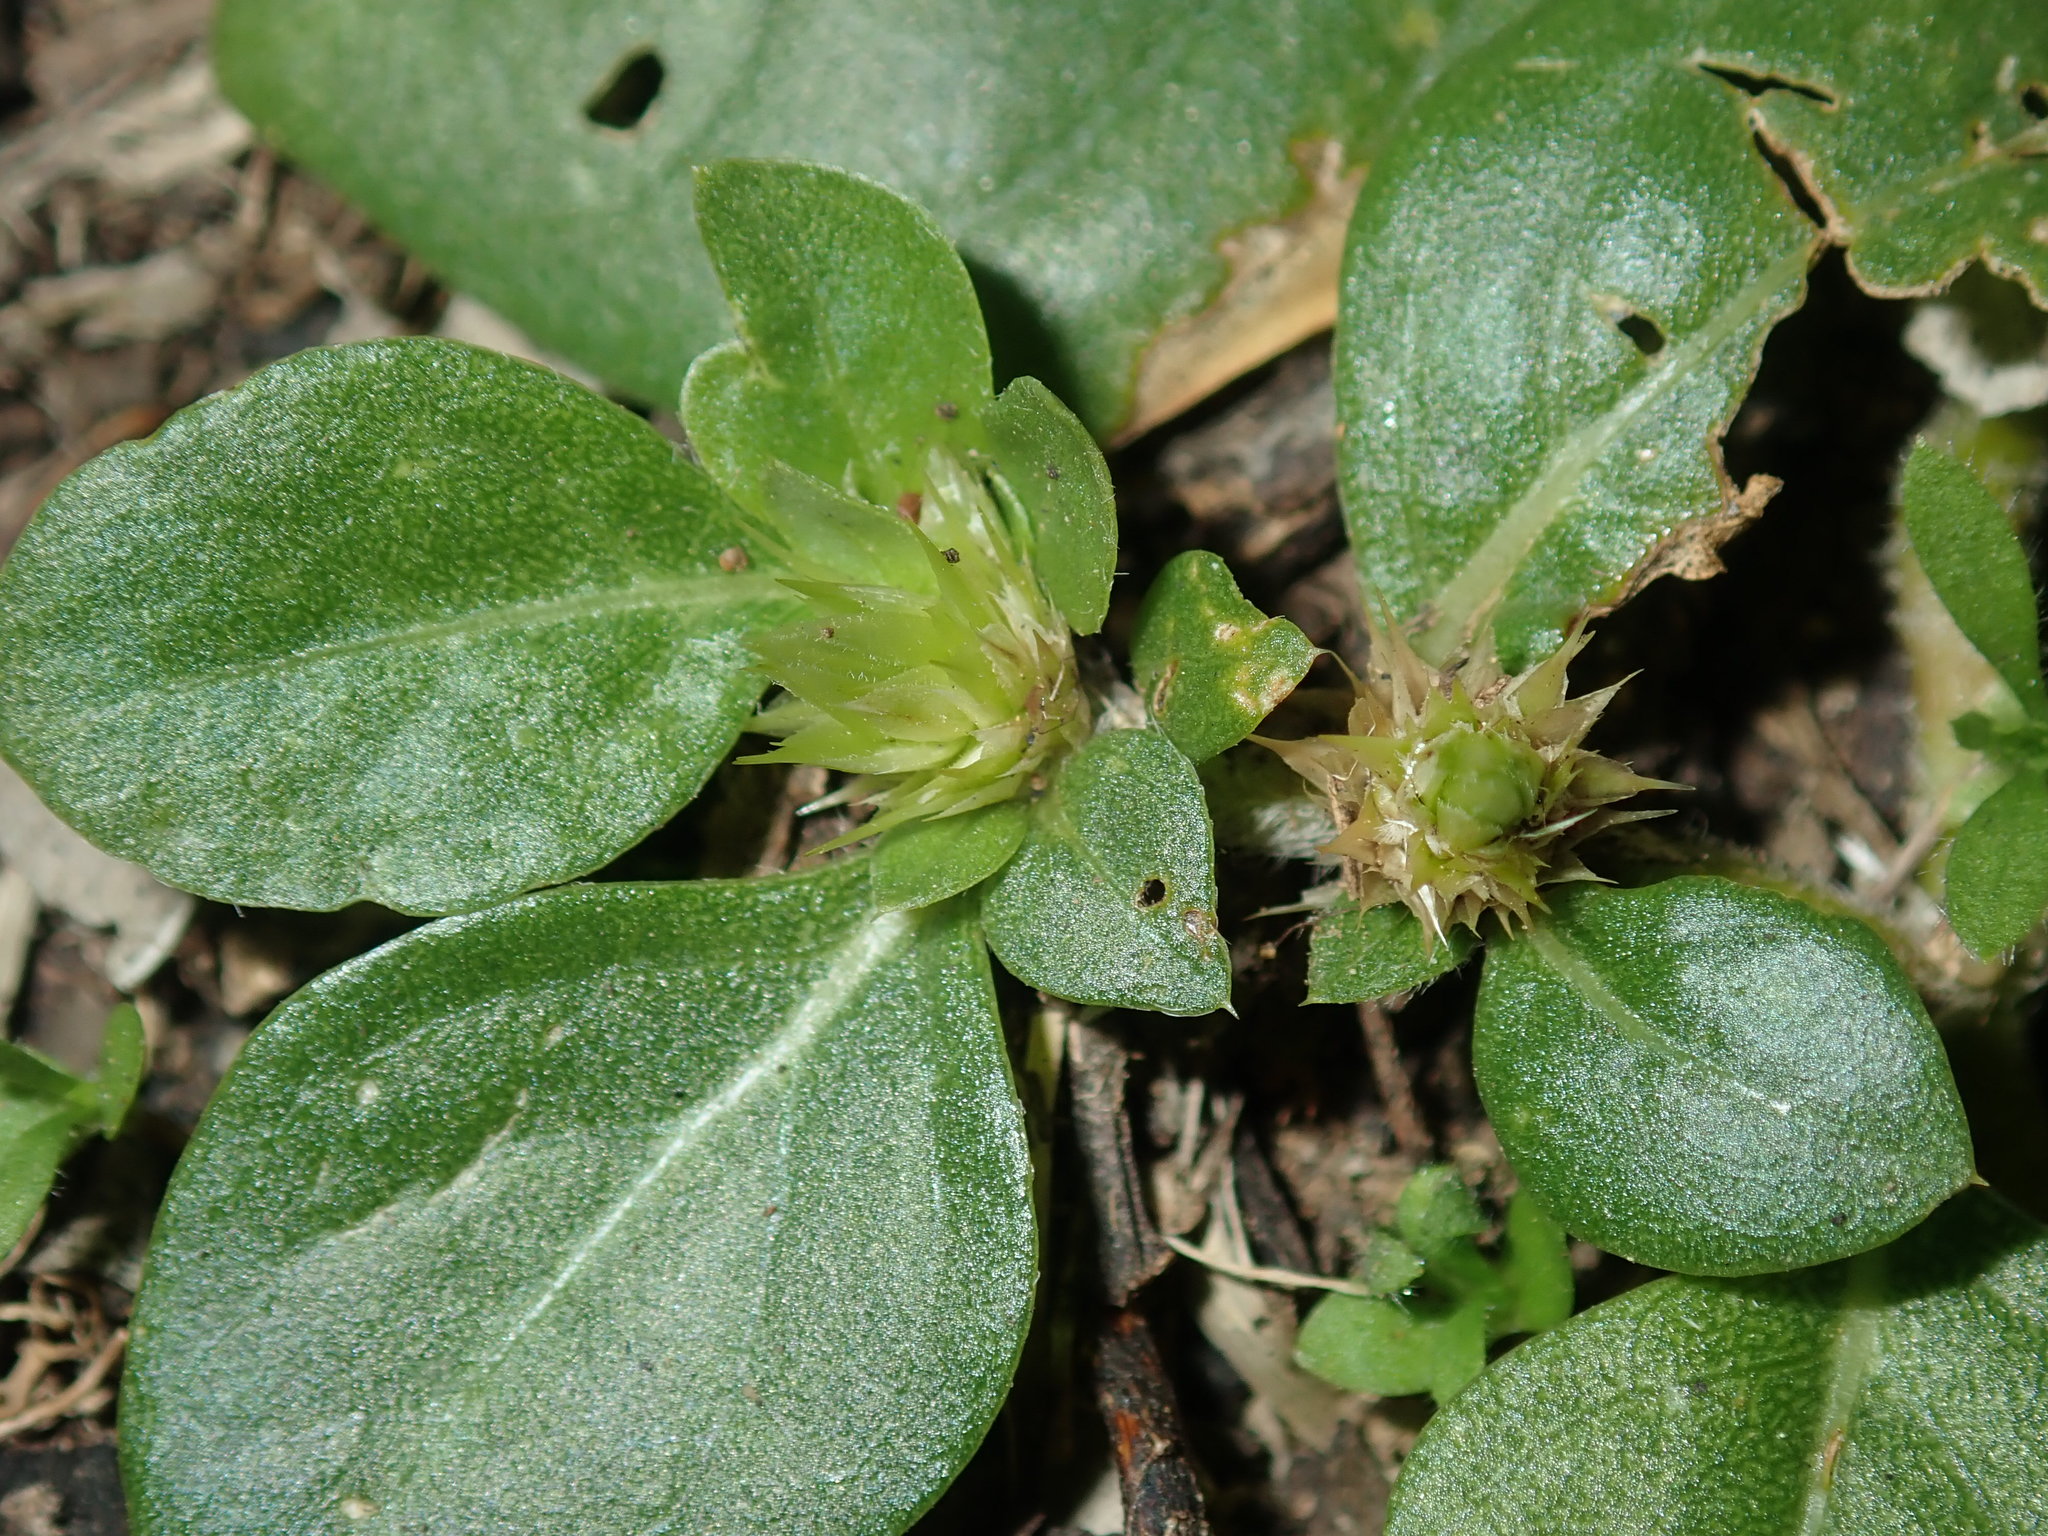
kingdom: Plantae
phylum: Tracheophyta
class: Magnoliopsida
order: Caryophyllales
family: Amaranthaceae
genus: Alternanthera
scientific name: Alternanthera pungens
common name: Khakiweed
